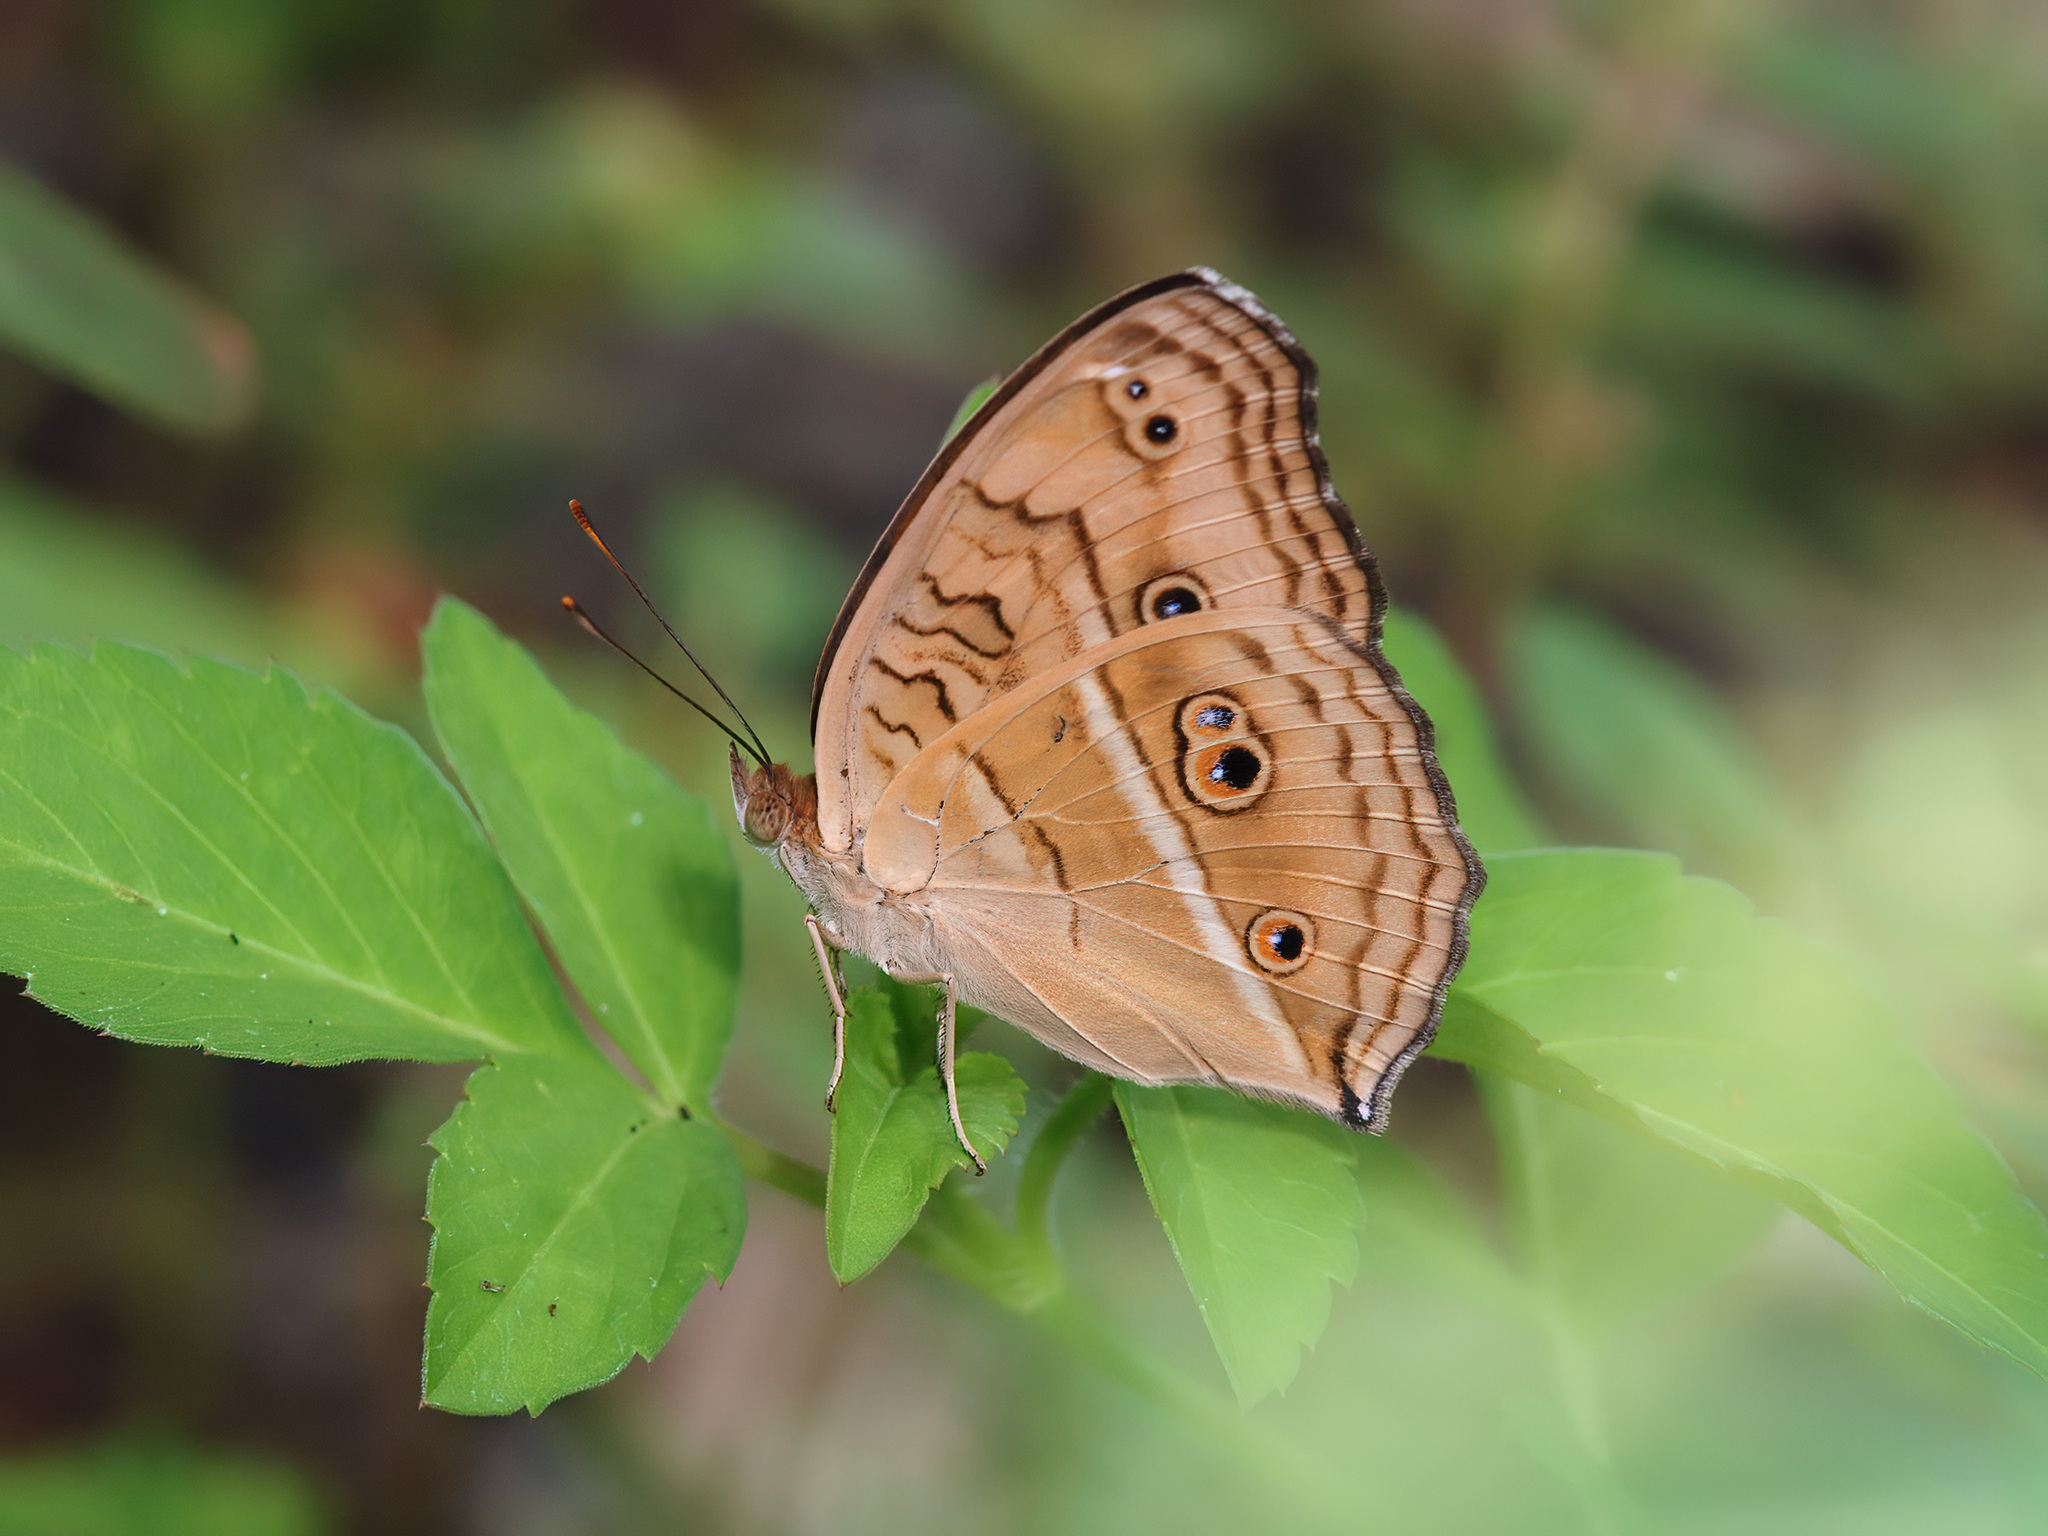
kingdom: Animalia
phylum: Arthropoda
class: Insecta
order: Lepidoptera
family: Nymphalidae
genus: Junonia
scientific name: Junonia almana
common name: Peacock pansy
